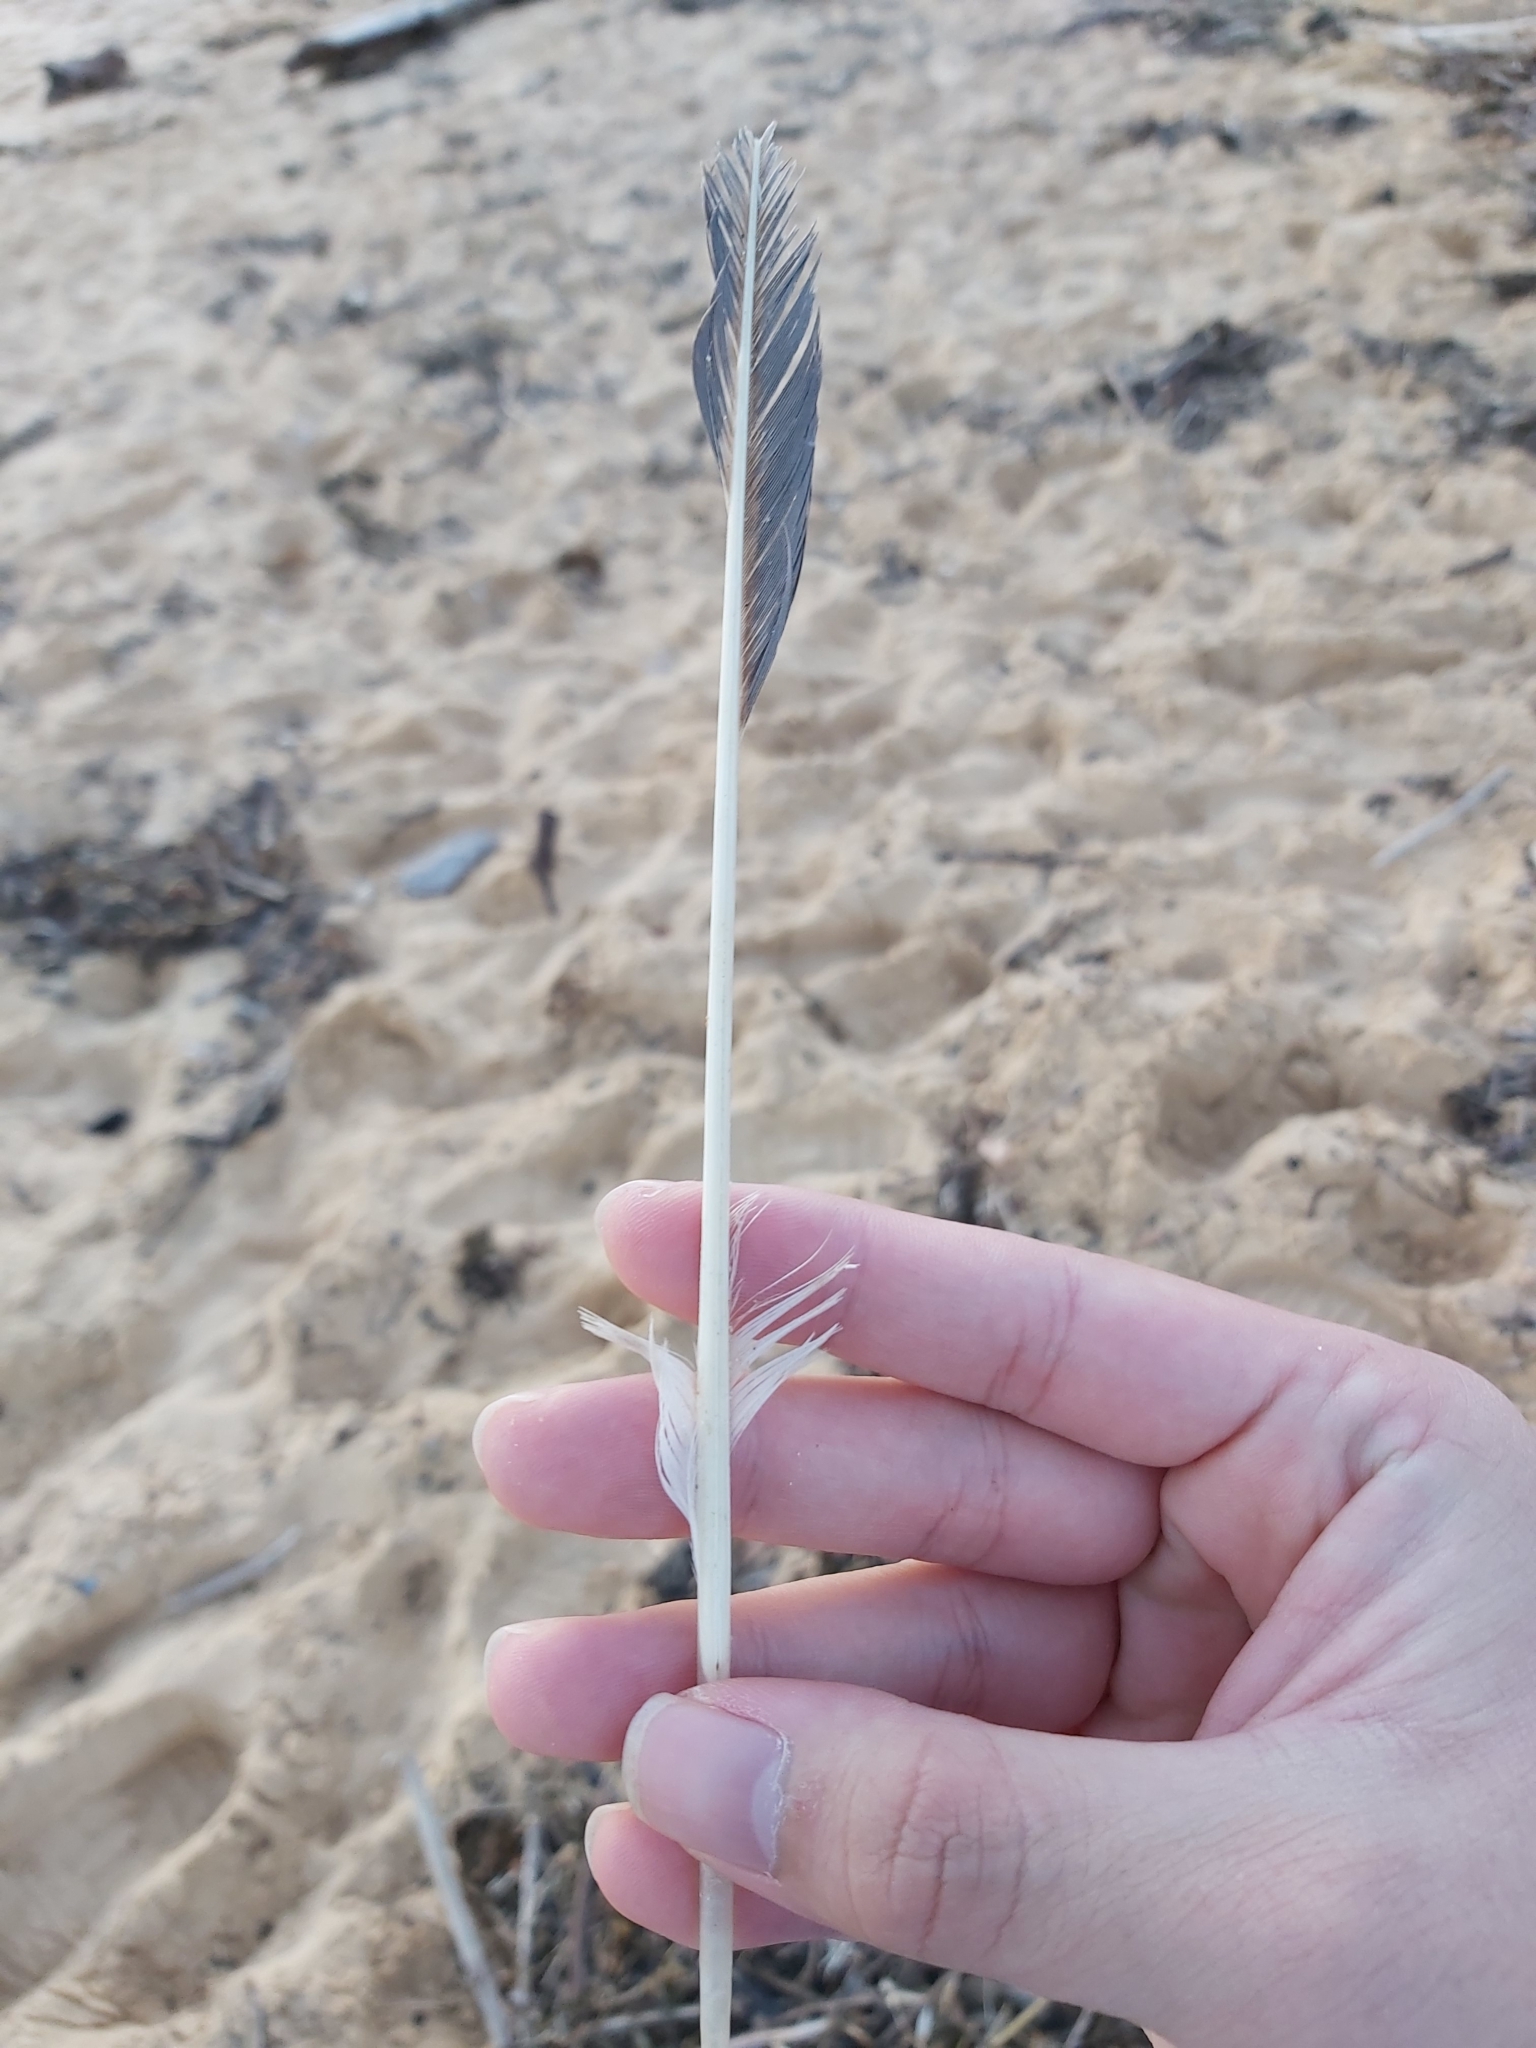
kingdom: Animalia
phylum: Chordata
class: Aves
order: Suliformes
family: Sulidae
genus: Morus
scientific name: Morus serrator
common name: Australasian gannet
